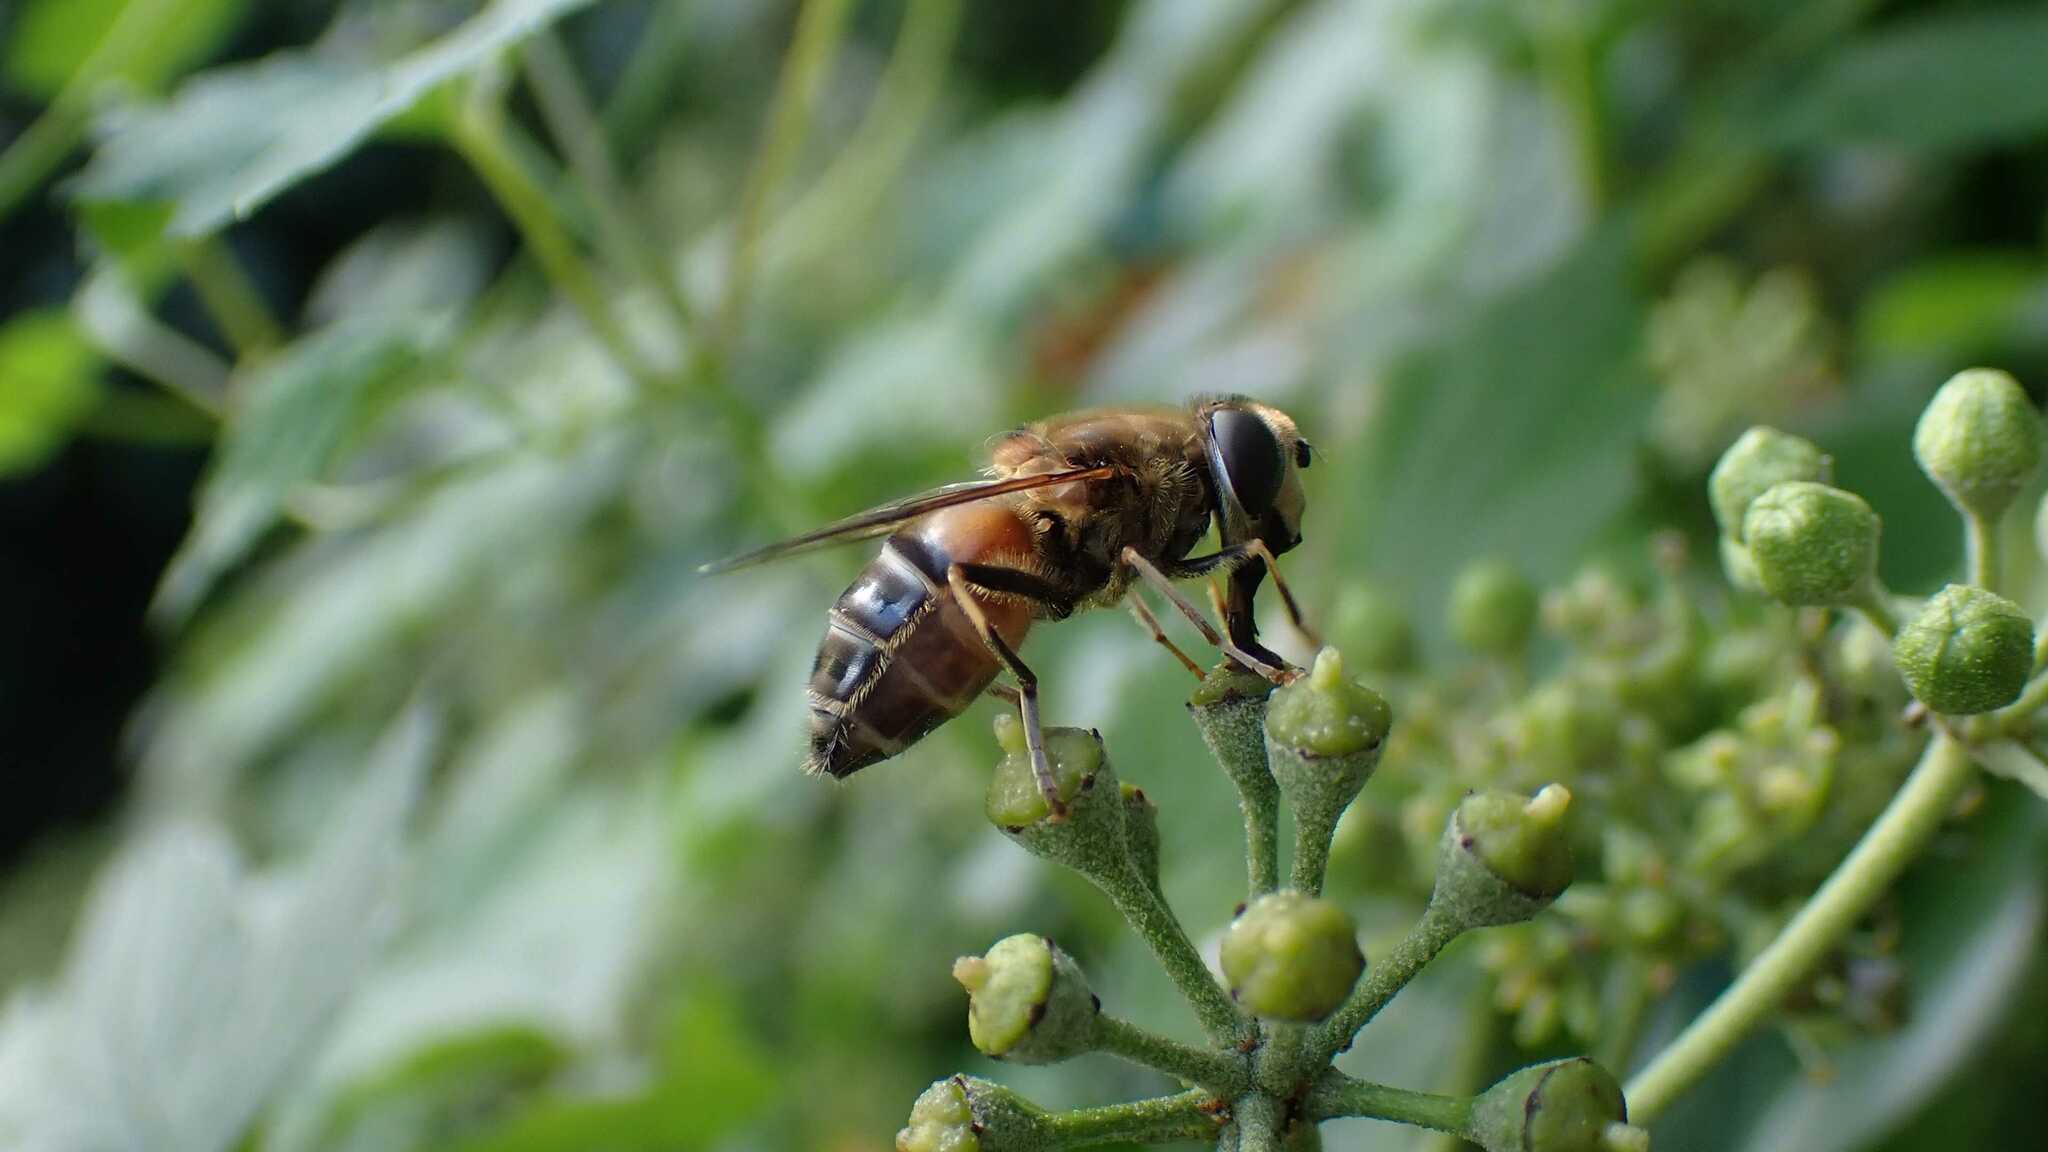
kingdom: Animalia
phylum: Arthropoda
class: Insecta
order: Diptera
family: Syrphidae
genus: Eristalis
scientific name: Eristalis pertinax
